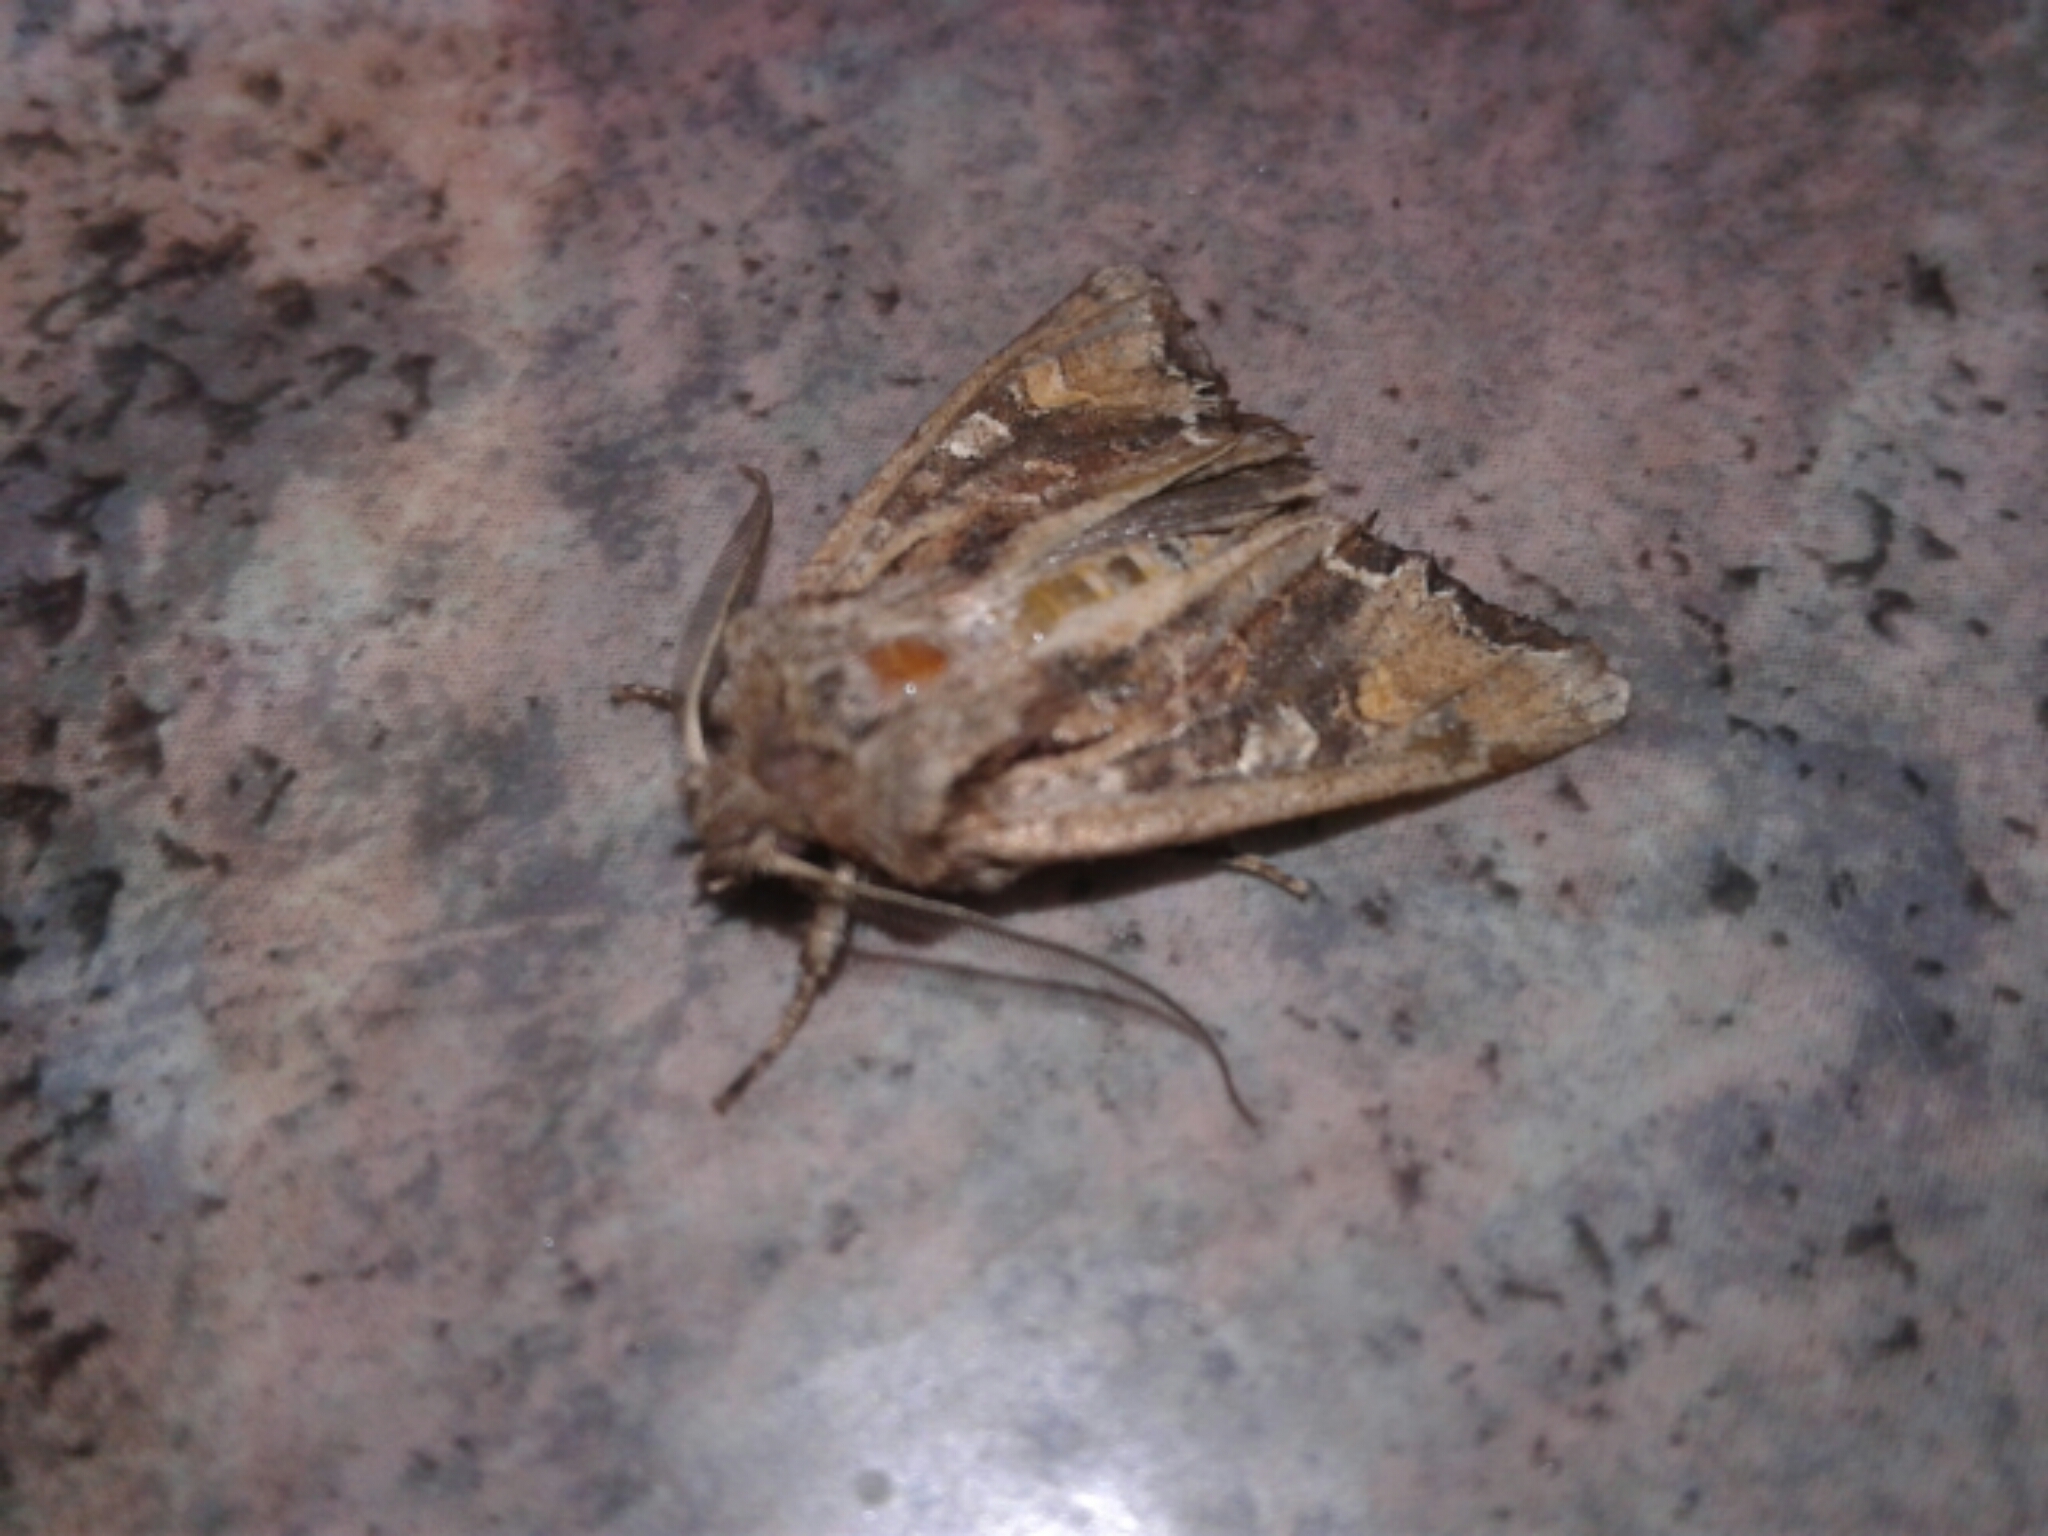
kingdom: Animalia
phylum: Arthropoda
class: Insecta
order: Lepidoptera
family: Noctuidae
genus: Ichneutica
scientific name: Ichneutica
